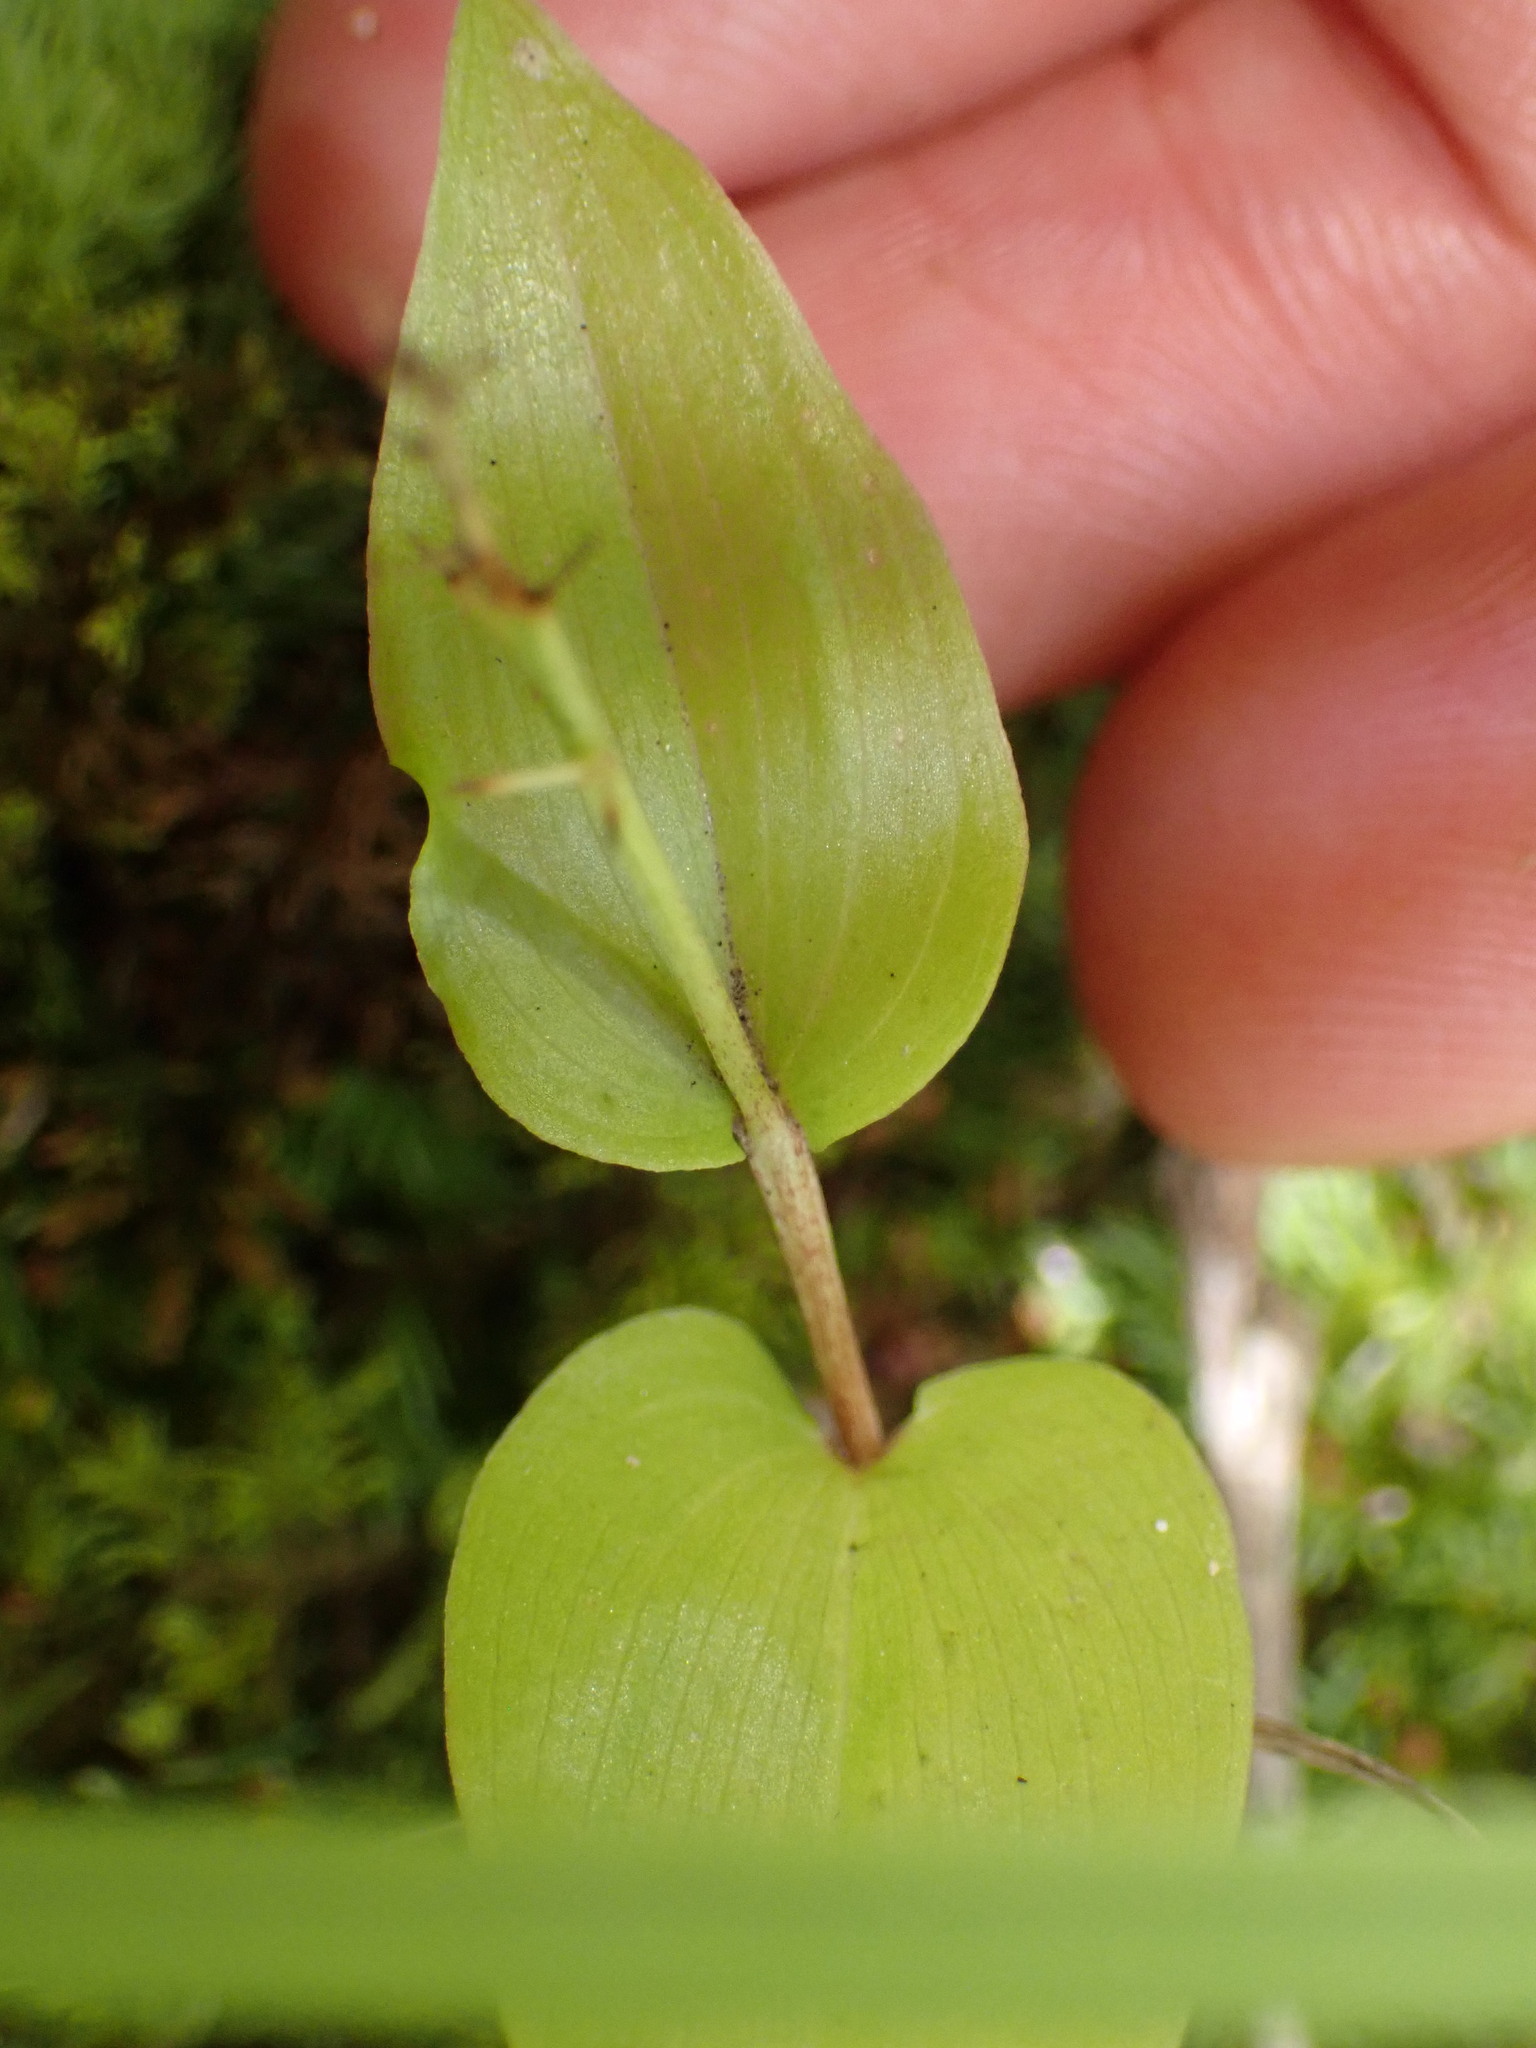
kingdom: Plantae
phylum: Tracheophyta
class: Liliopsida
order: Asparagales
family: Asparagaceae
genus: Maianthemum
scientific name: Maianthemum canadense
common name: False lily-of-the-valley
